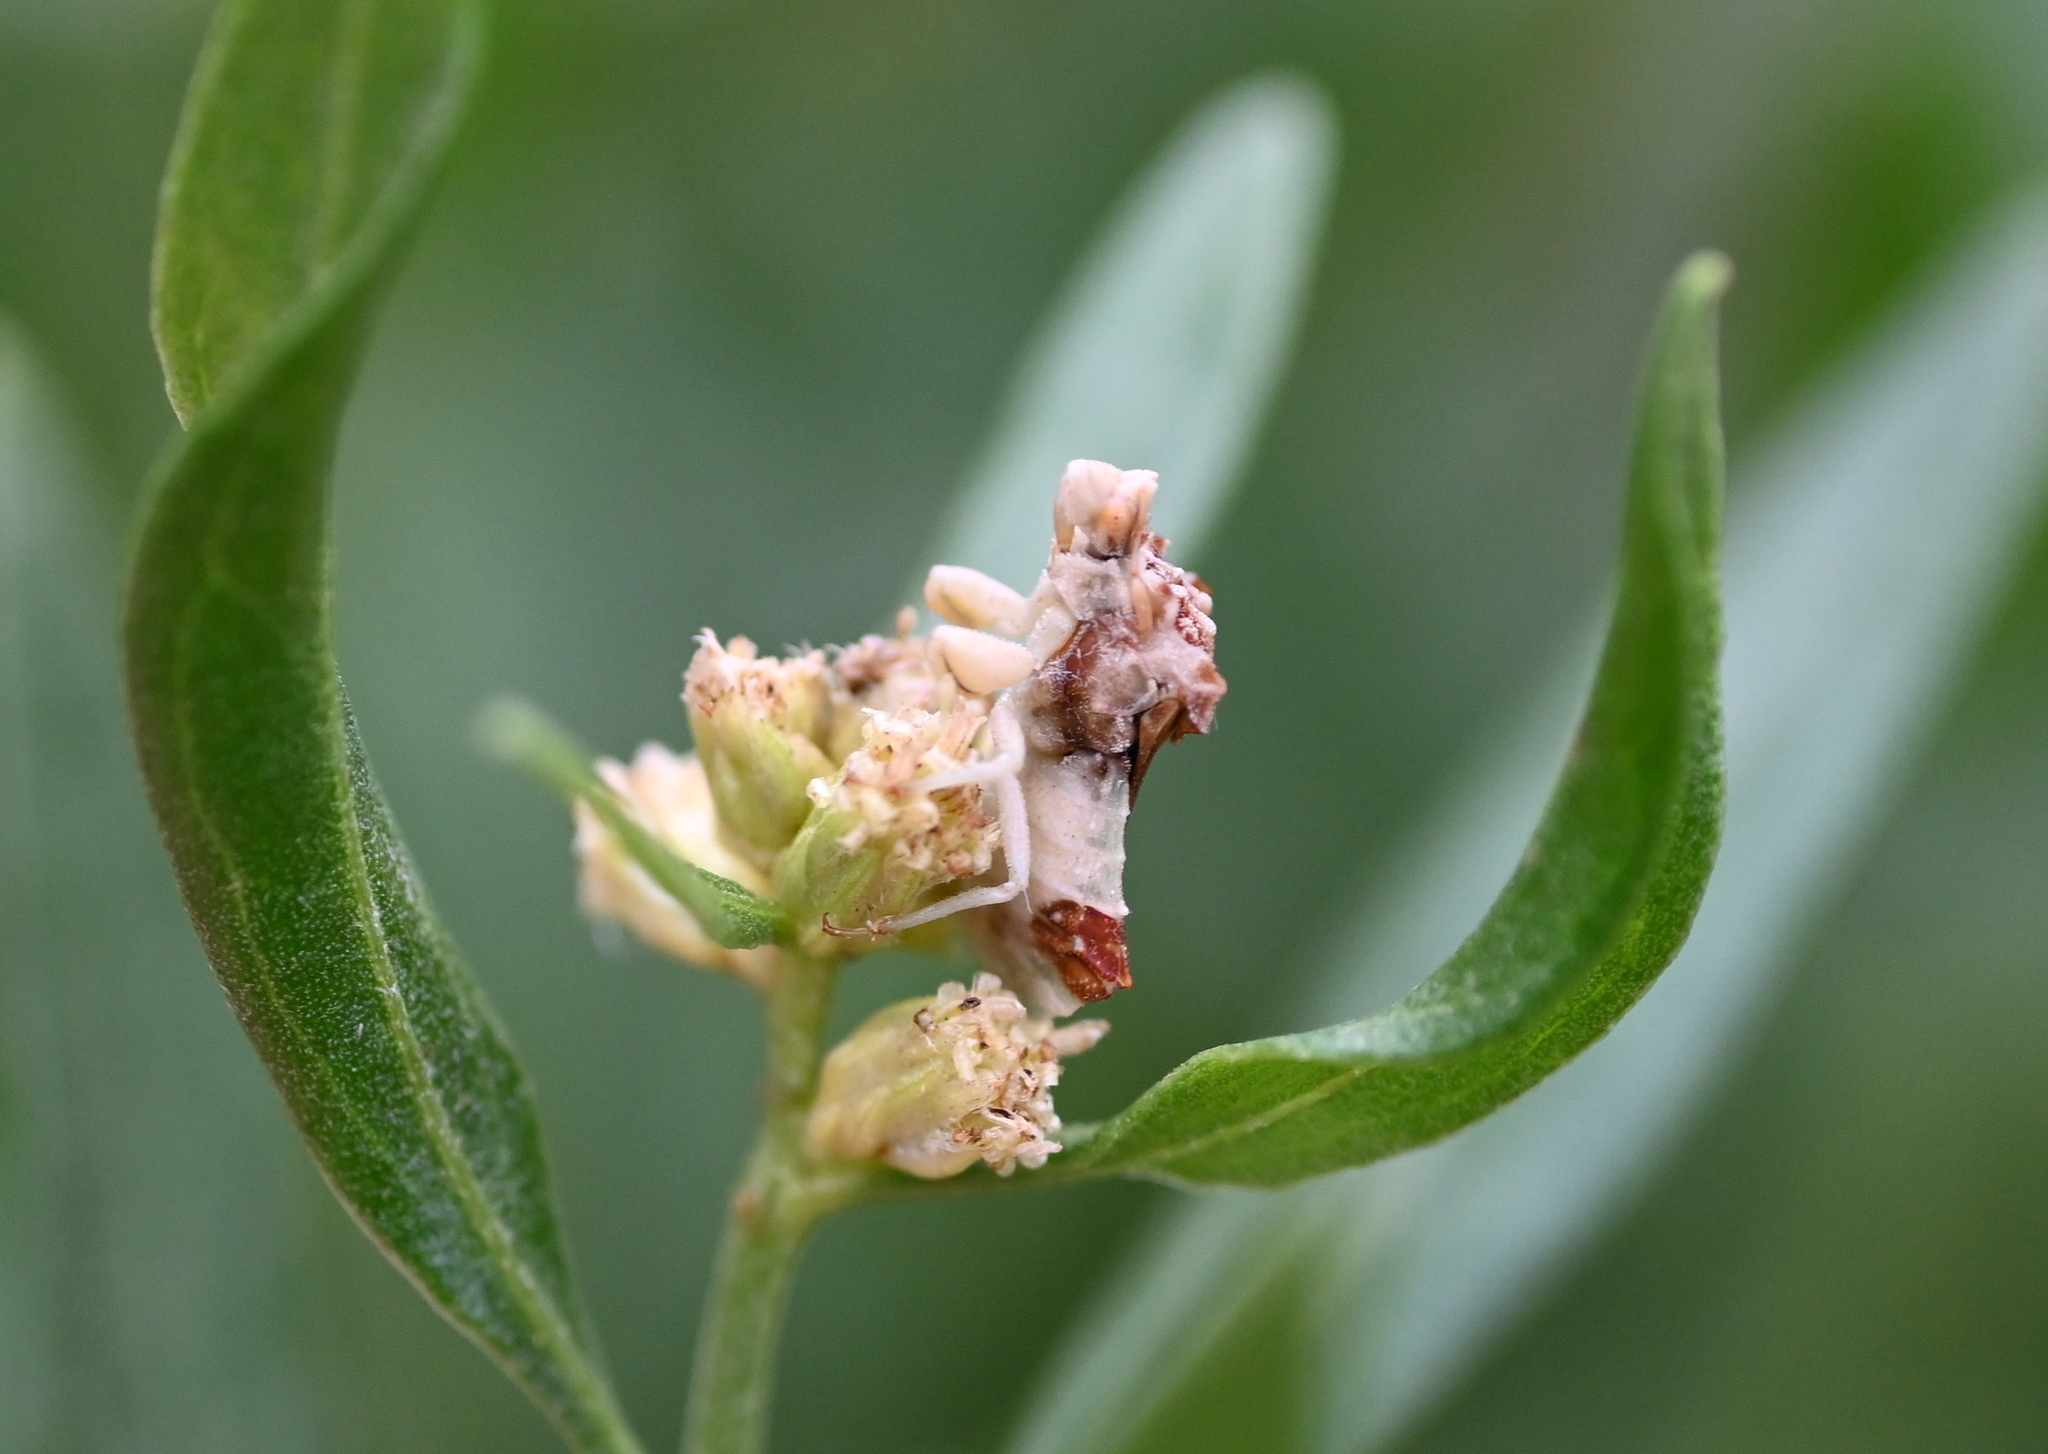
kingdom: Animalia
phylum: Arthropoda
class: Insecta
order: Hemiptera
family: Reduviidae
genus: Phymata
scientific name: Phymata fasciata
